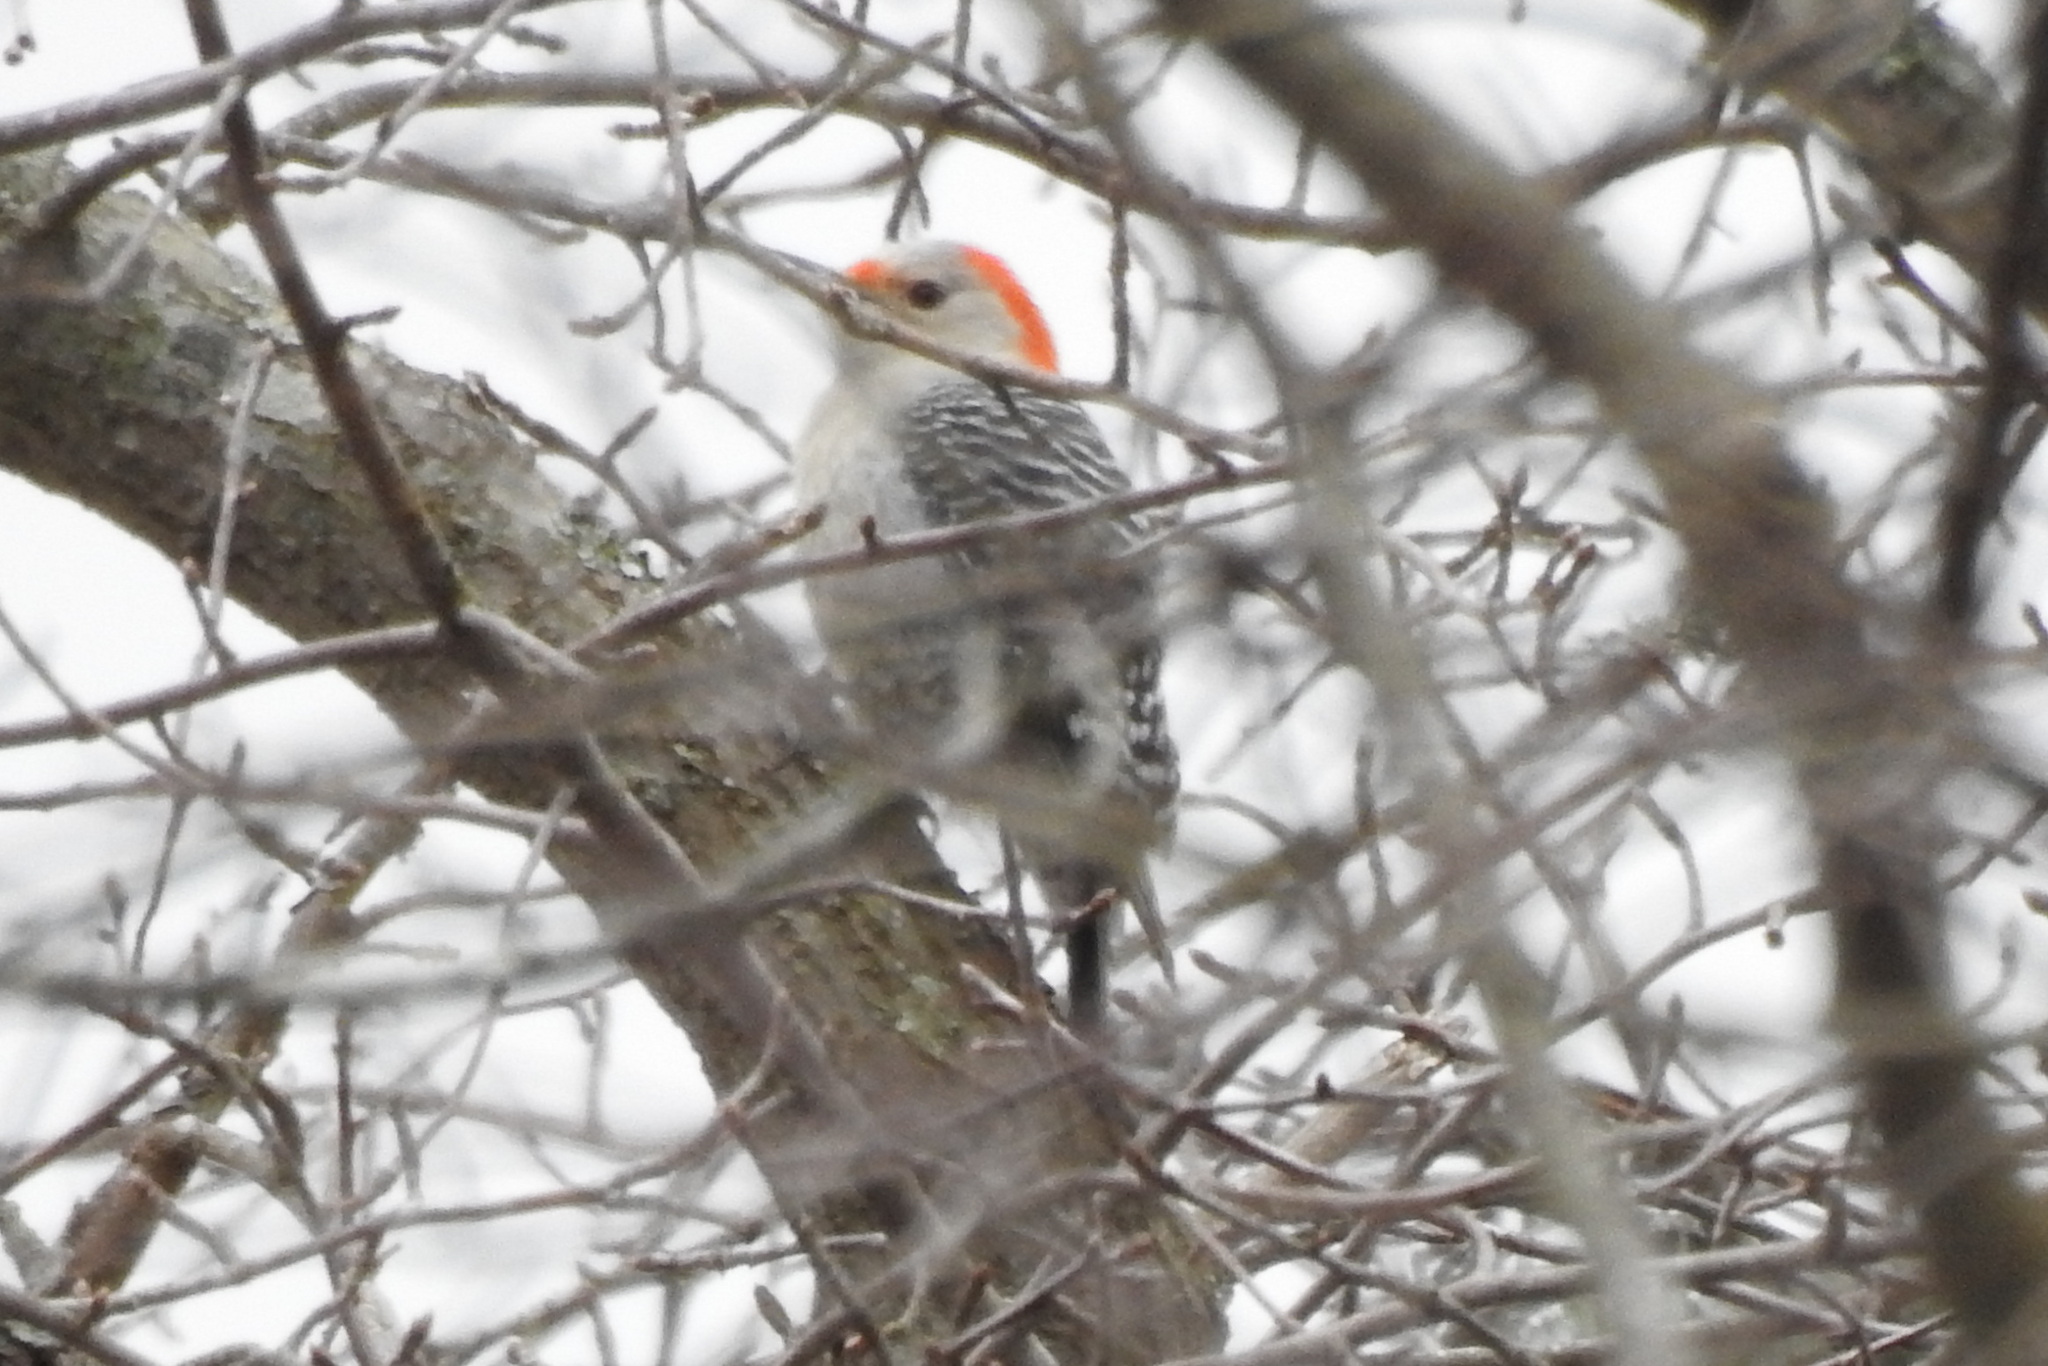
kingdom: Animalia
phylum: Chordata
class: Aves
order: Piciformes
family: Picidae
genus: Melanerpes
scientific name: Melanerpes carolinus
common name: Red-bellied woodpecker
